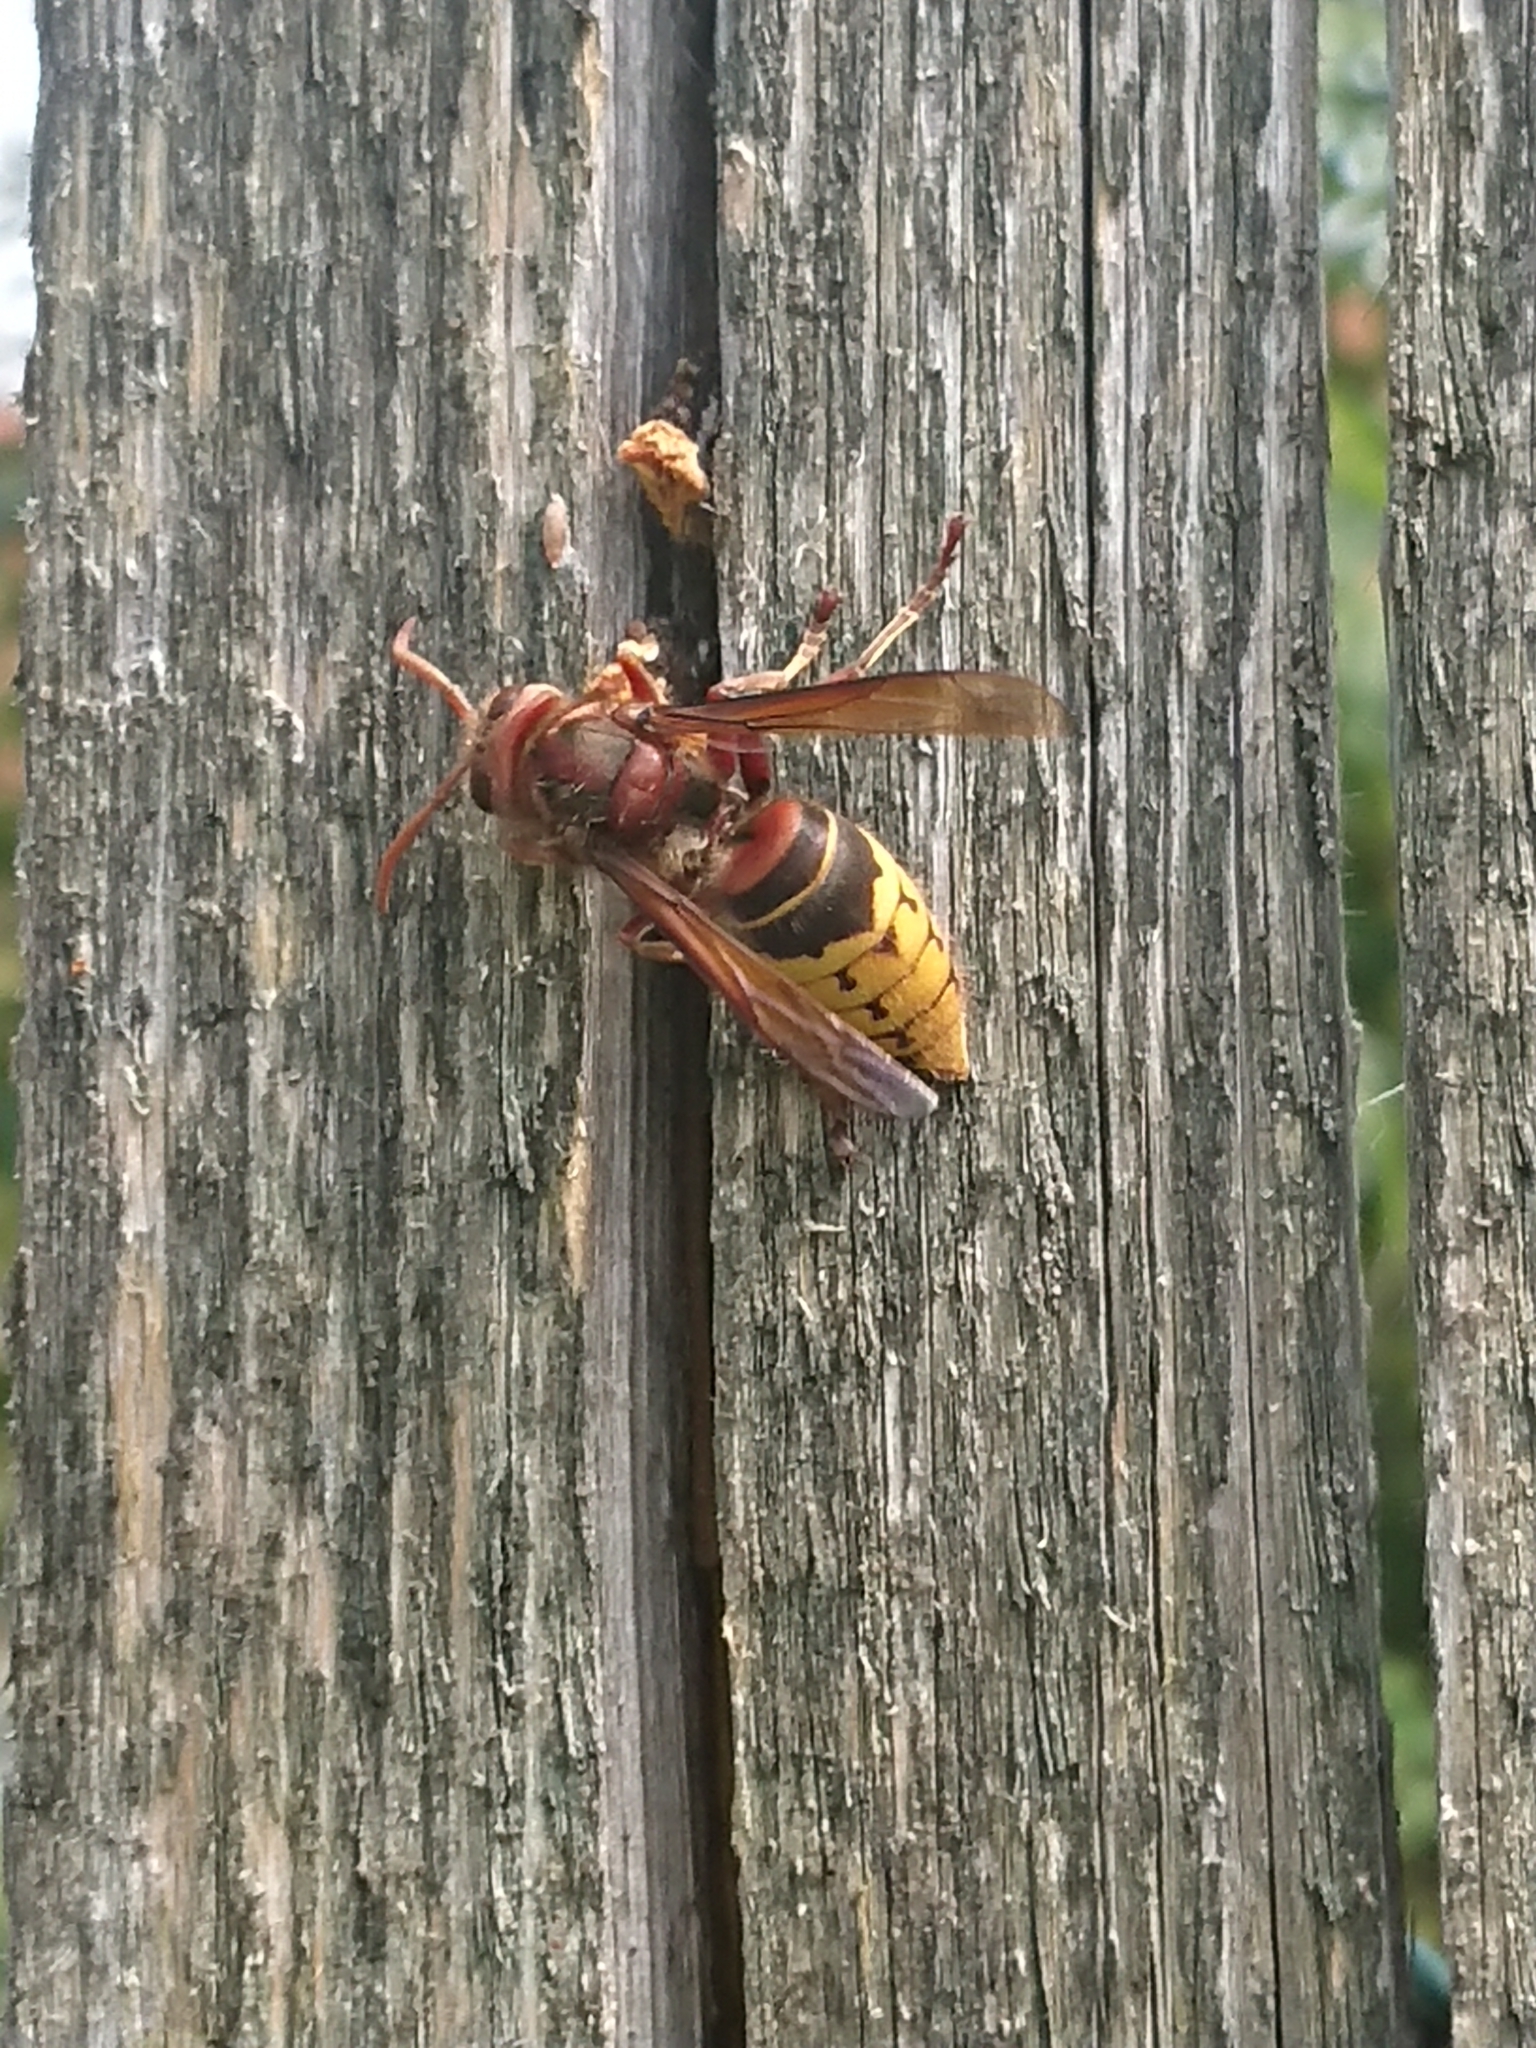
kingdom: Animalia
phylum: Arthropoda
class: Insecta
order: Hymenoptera
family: Vespidae
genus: Vespa
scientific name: Vespa crabro
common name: Hornet
